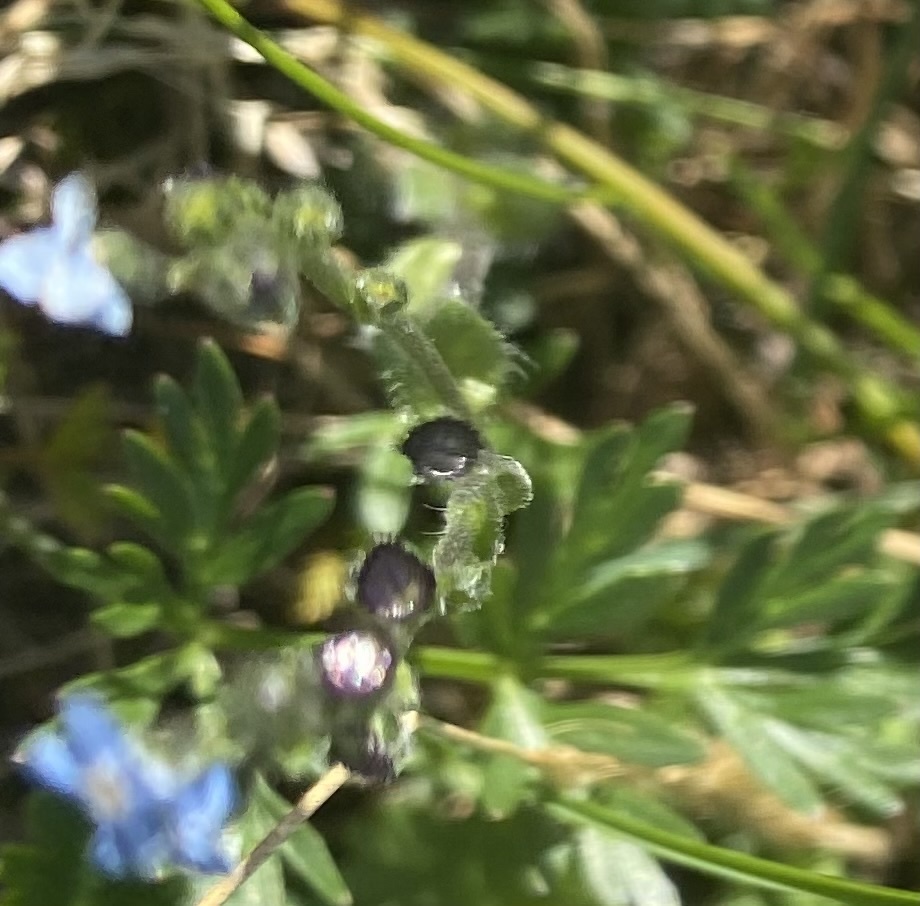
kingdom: Plantae
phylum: Tracheophyta
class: Magnoliopsida
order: Boraginales
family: Boraginaceae
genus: Eritrichium
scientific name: Eritrichium villosum
